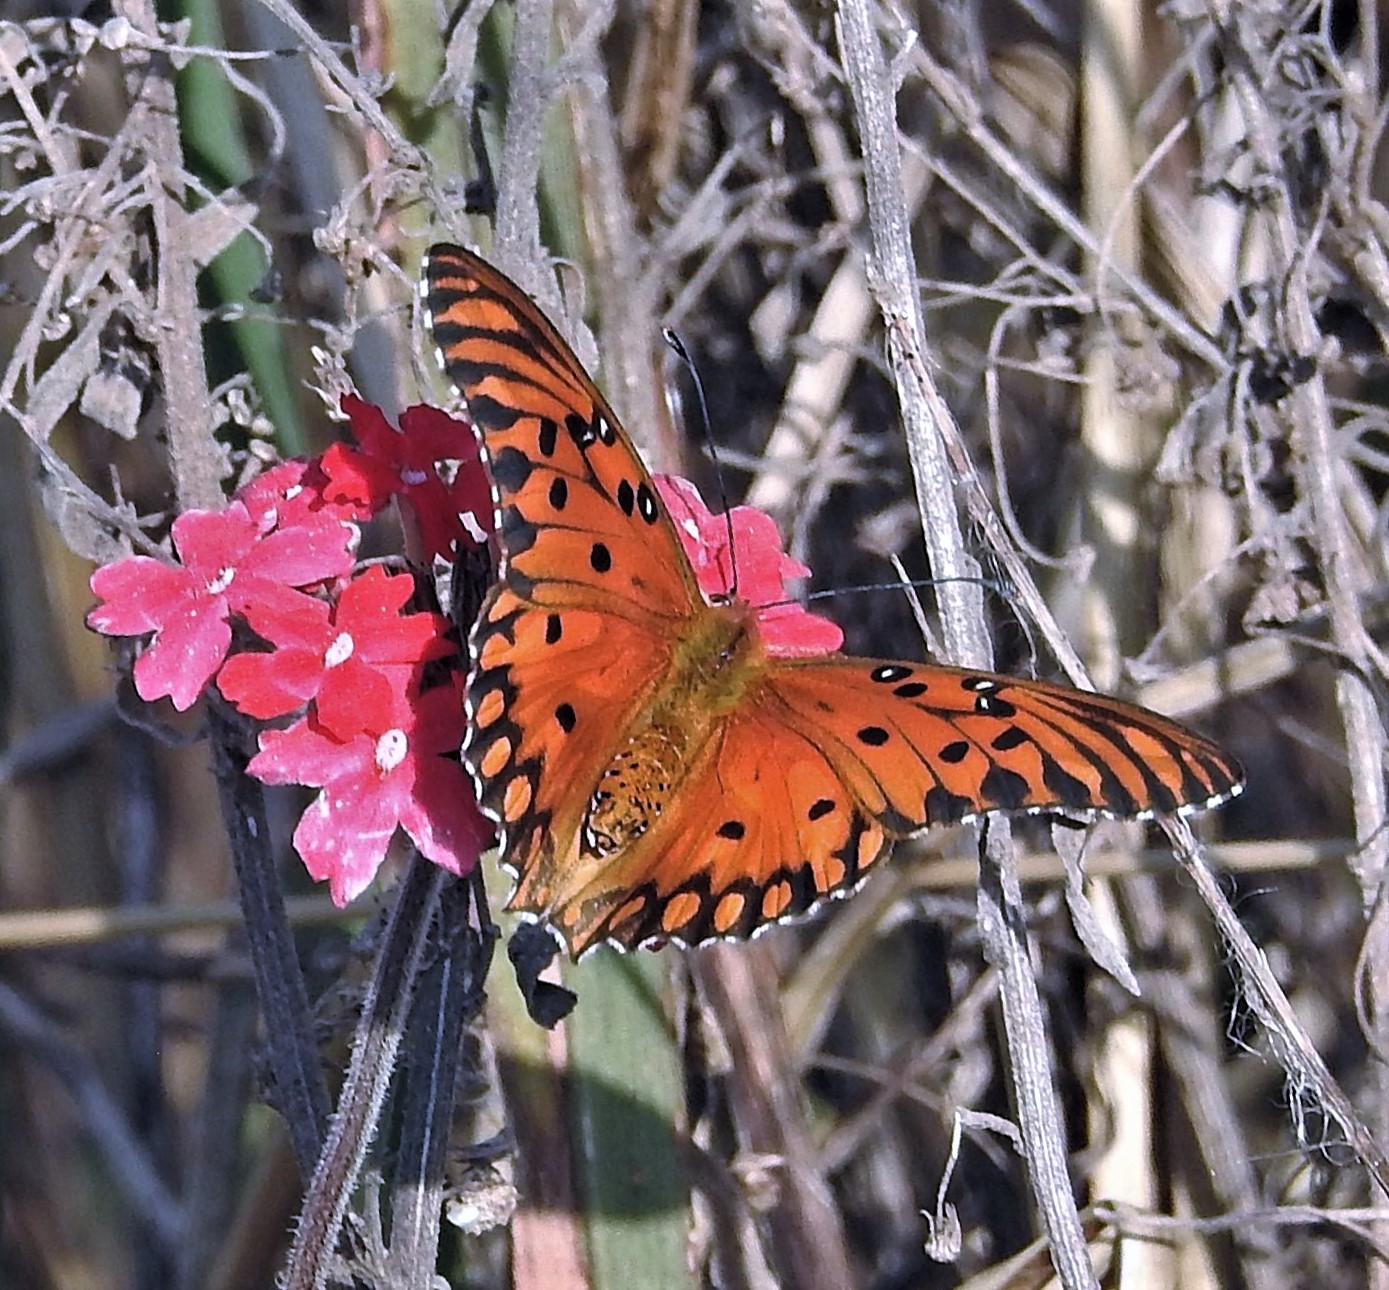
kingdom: Animalia
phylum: Arthropoda
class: Insecta
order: Lepidoptera
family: Nymphalidae
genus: Dione
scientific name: Dione vanillae
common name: Gulf fritillary
